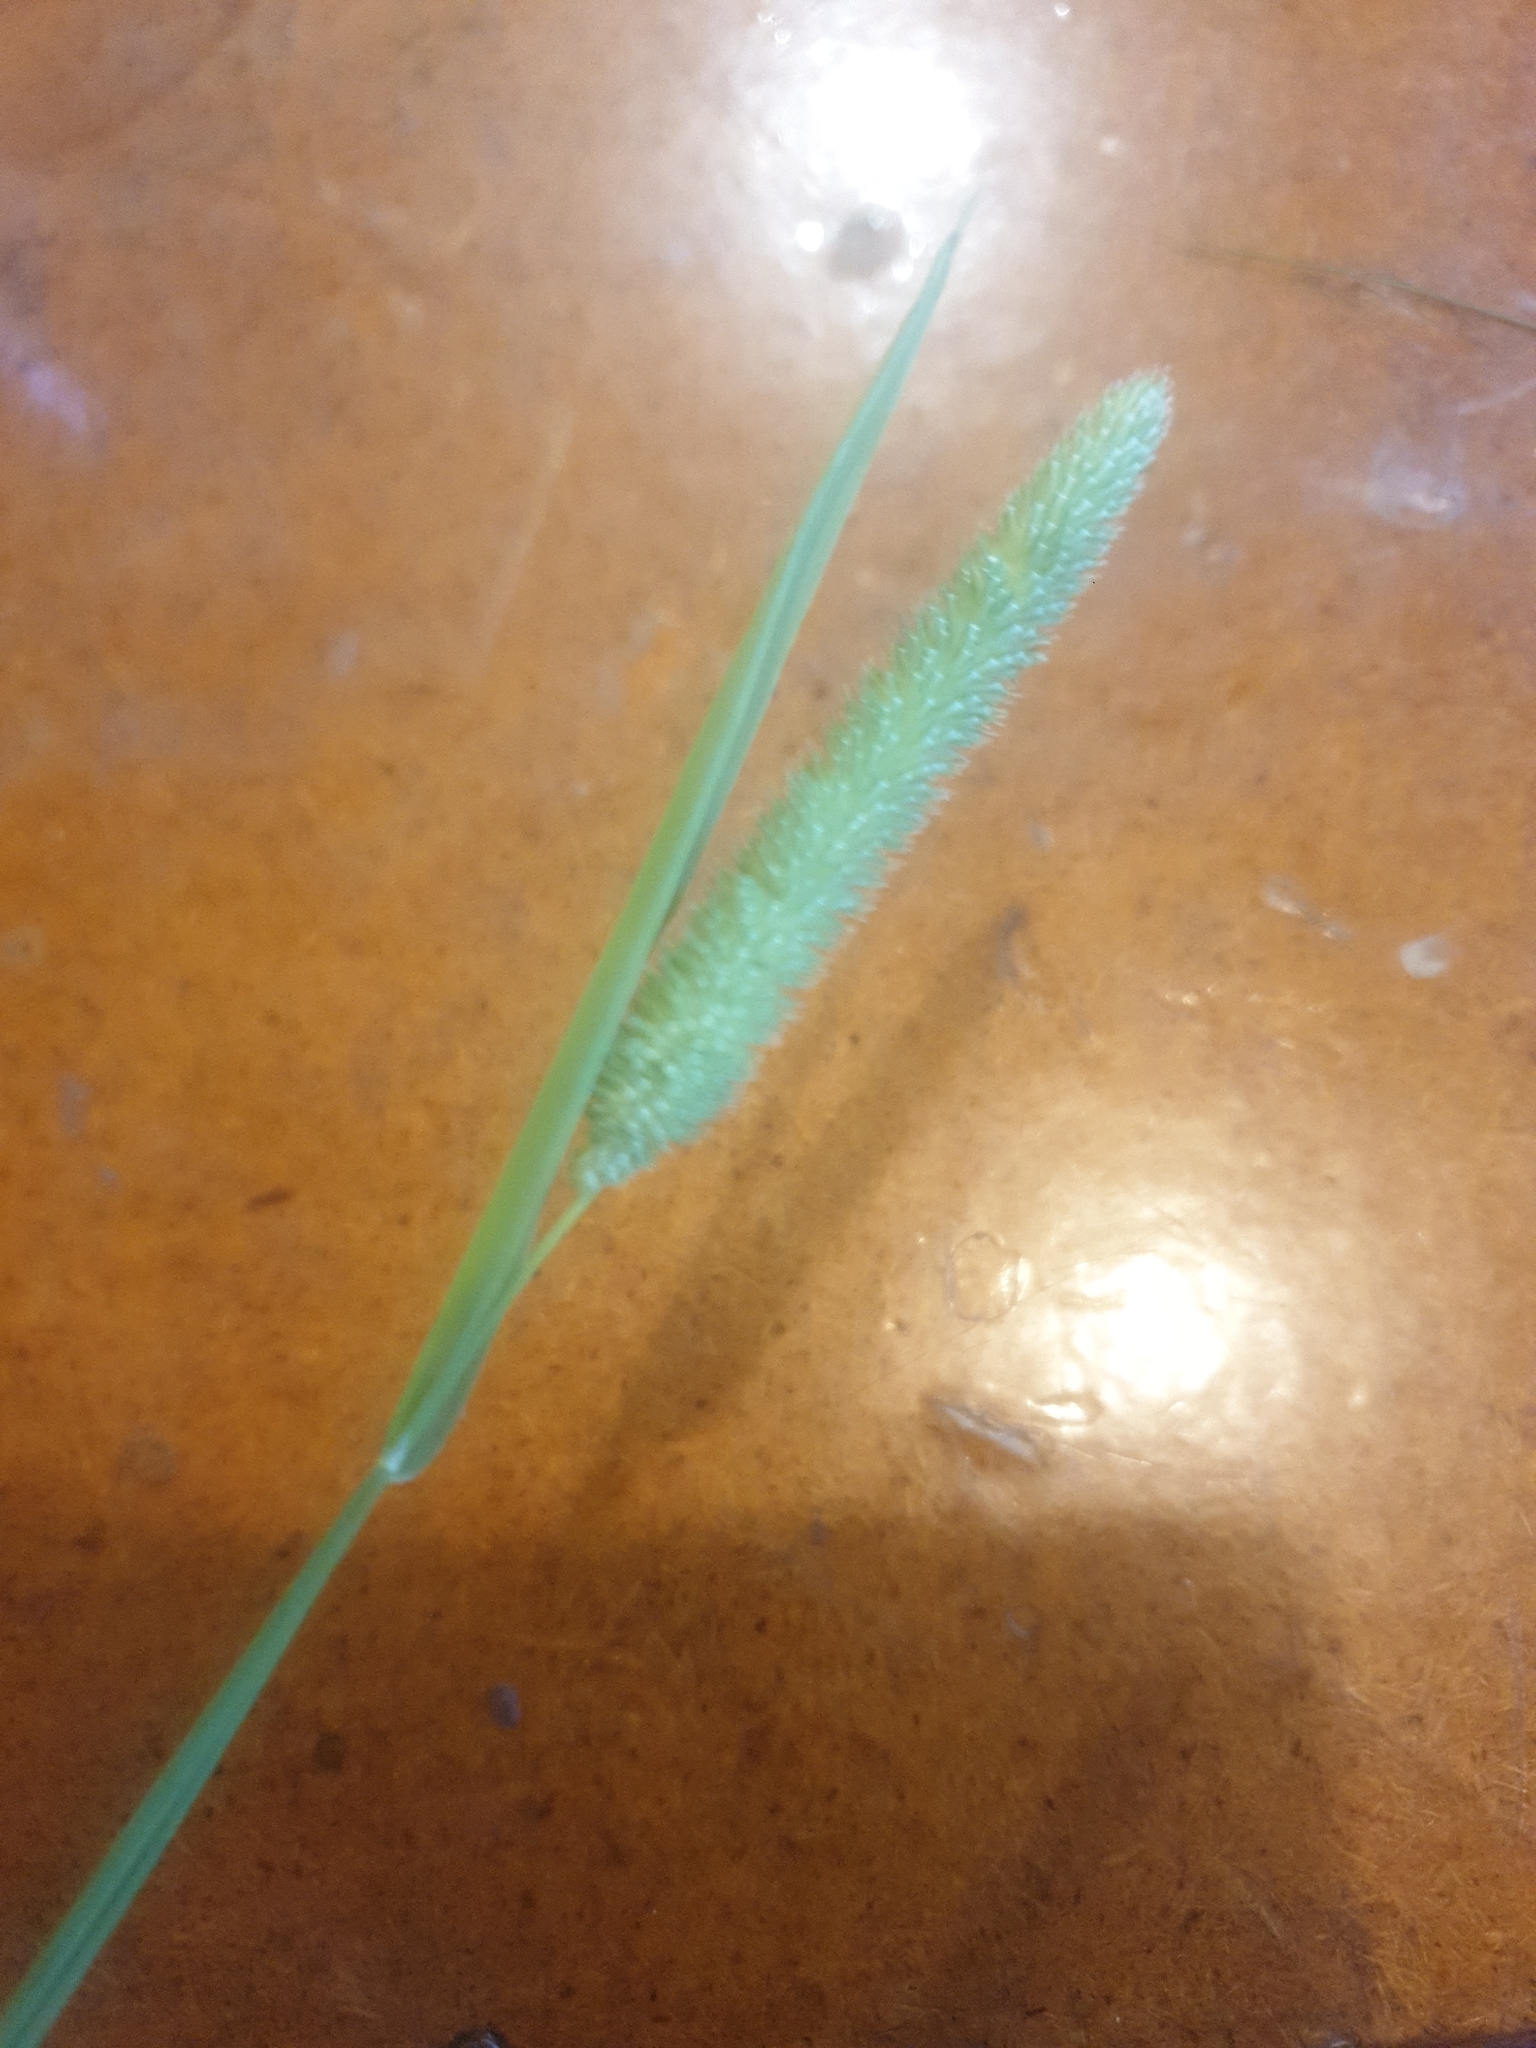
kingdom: Plantae
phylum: Tracheophyta
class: Liliopsida
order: Poales
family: Poaceae
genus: Phleum
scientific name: Phleum pratense
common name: Timothy grass
